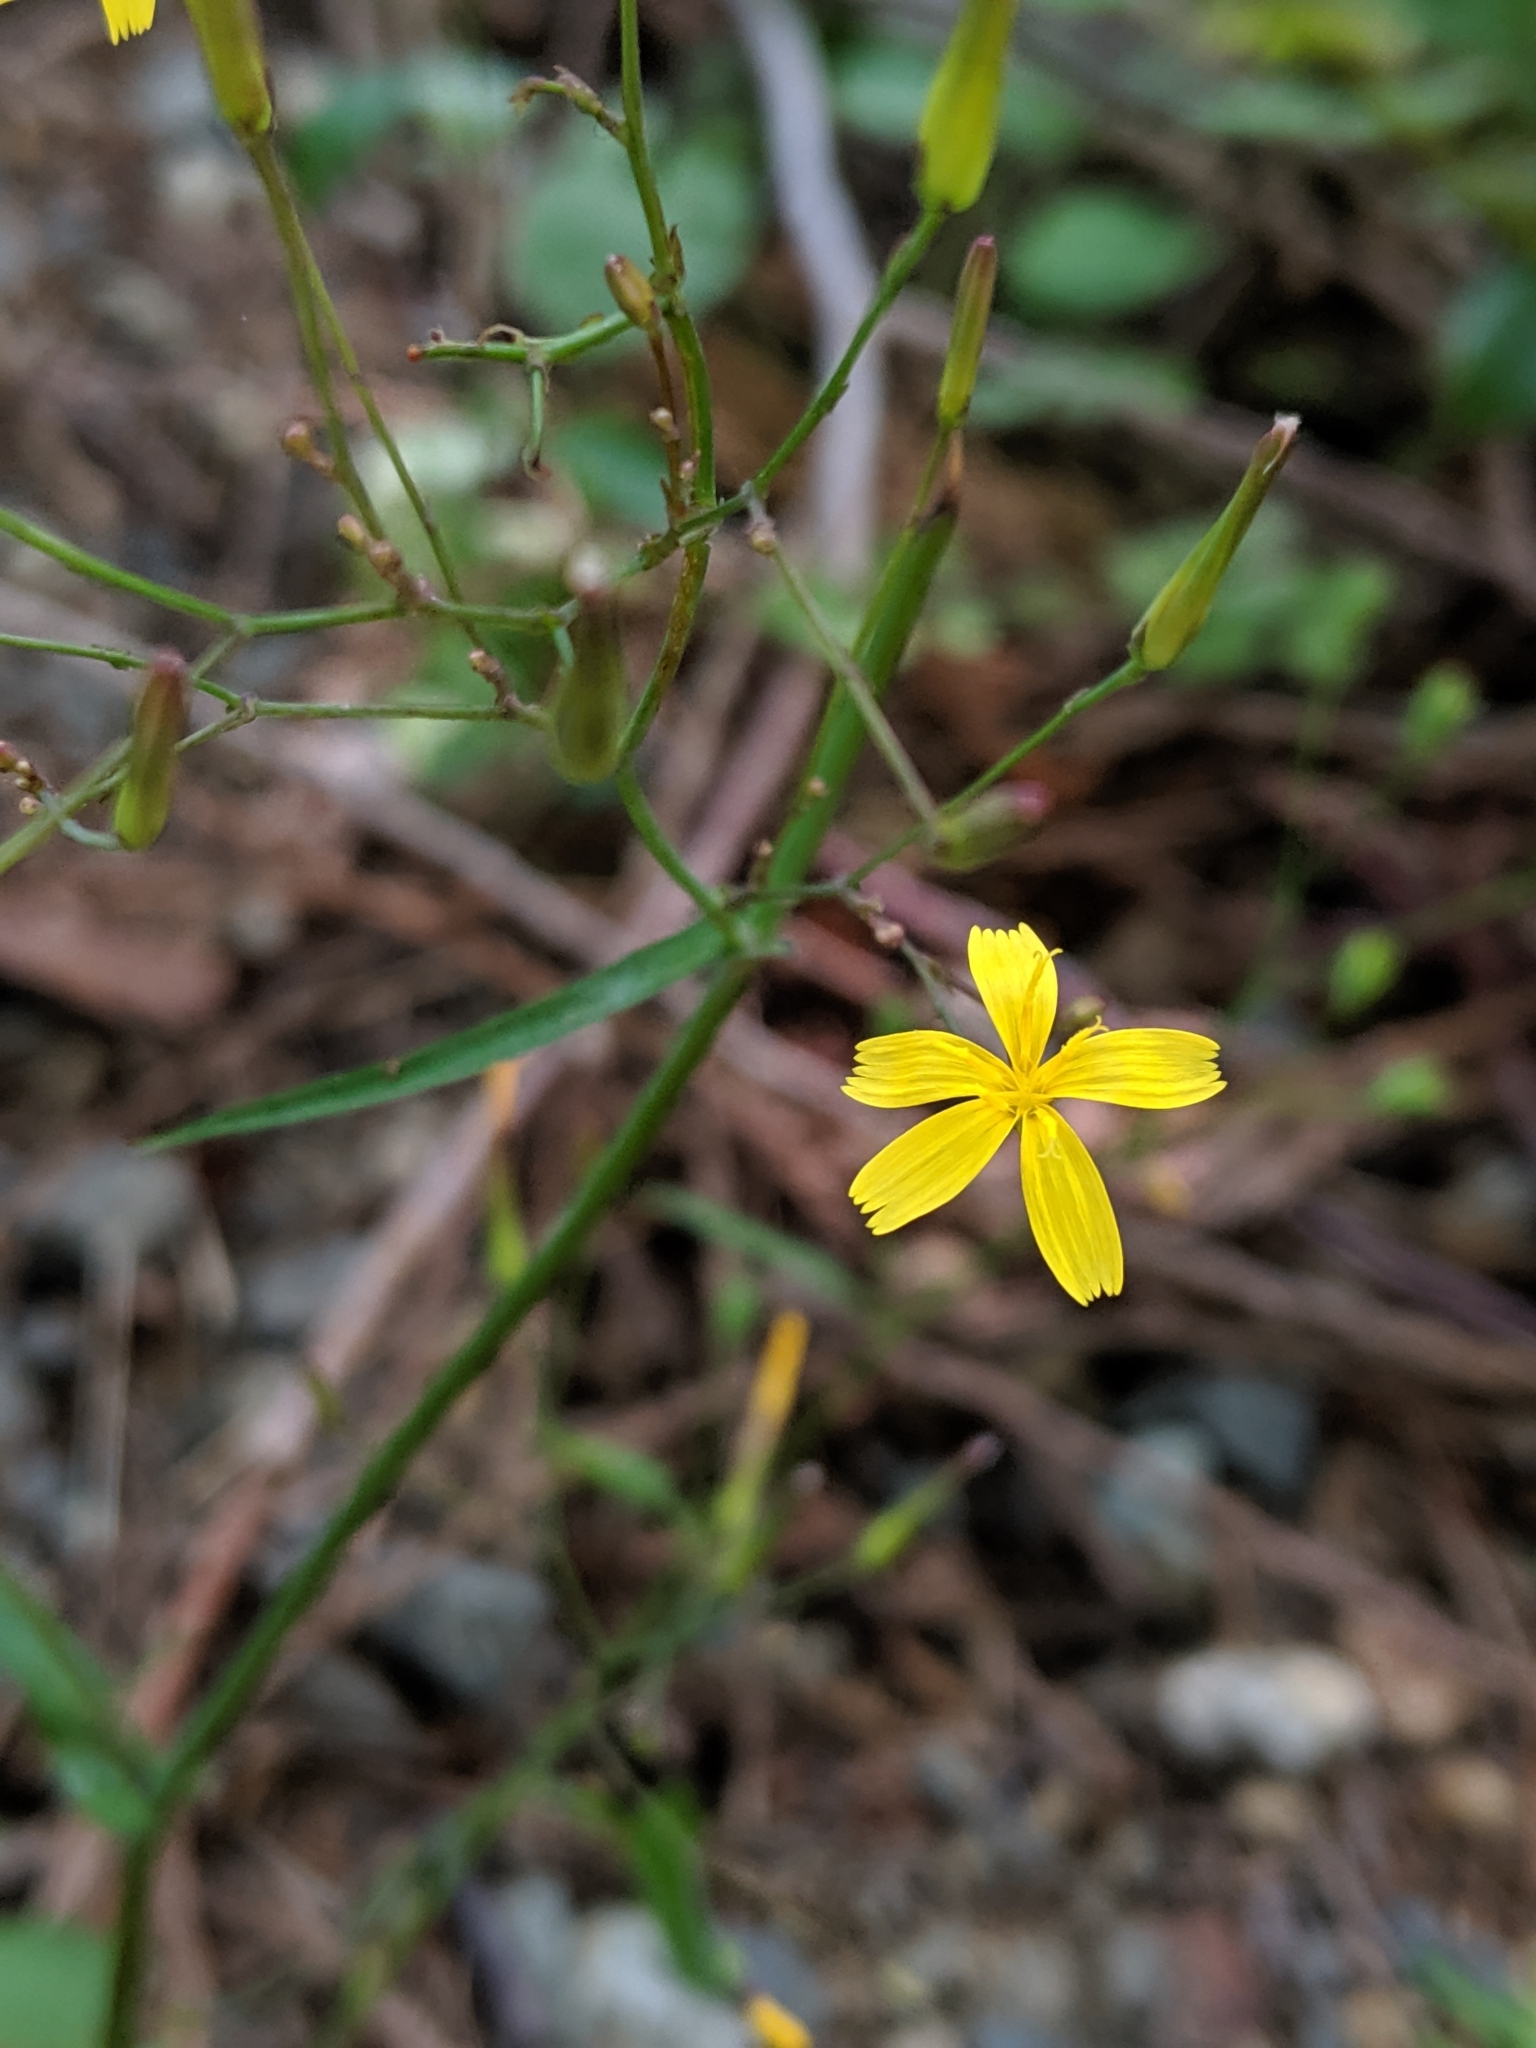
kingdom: Plantae
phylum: Tracheophyta
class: Magnoliopsida
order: Asterales
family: Asteraceae
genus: Mycelis
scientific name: Mycelis muralis
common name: Wall lettuce
